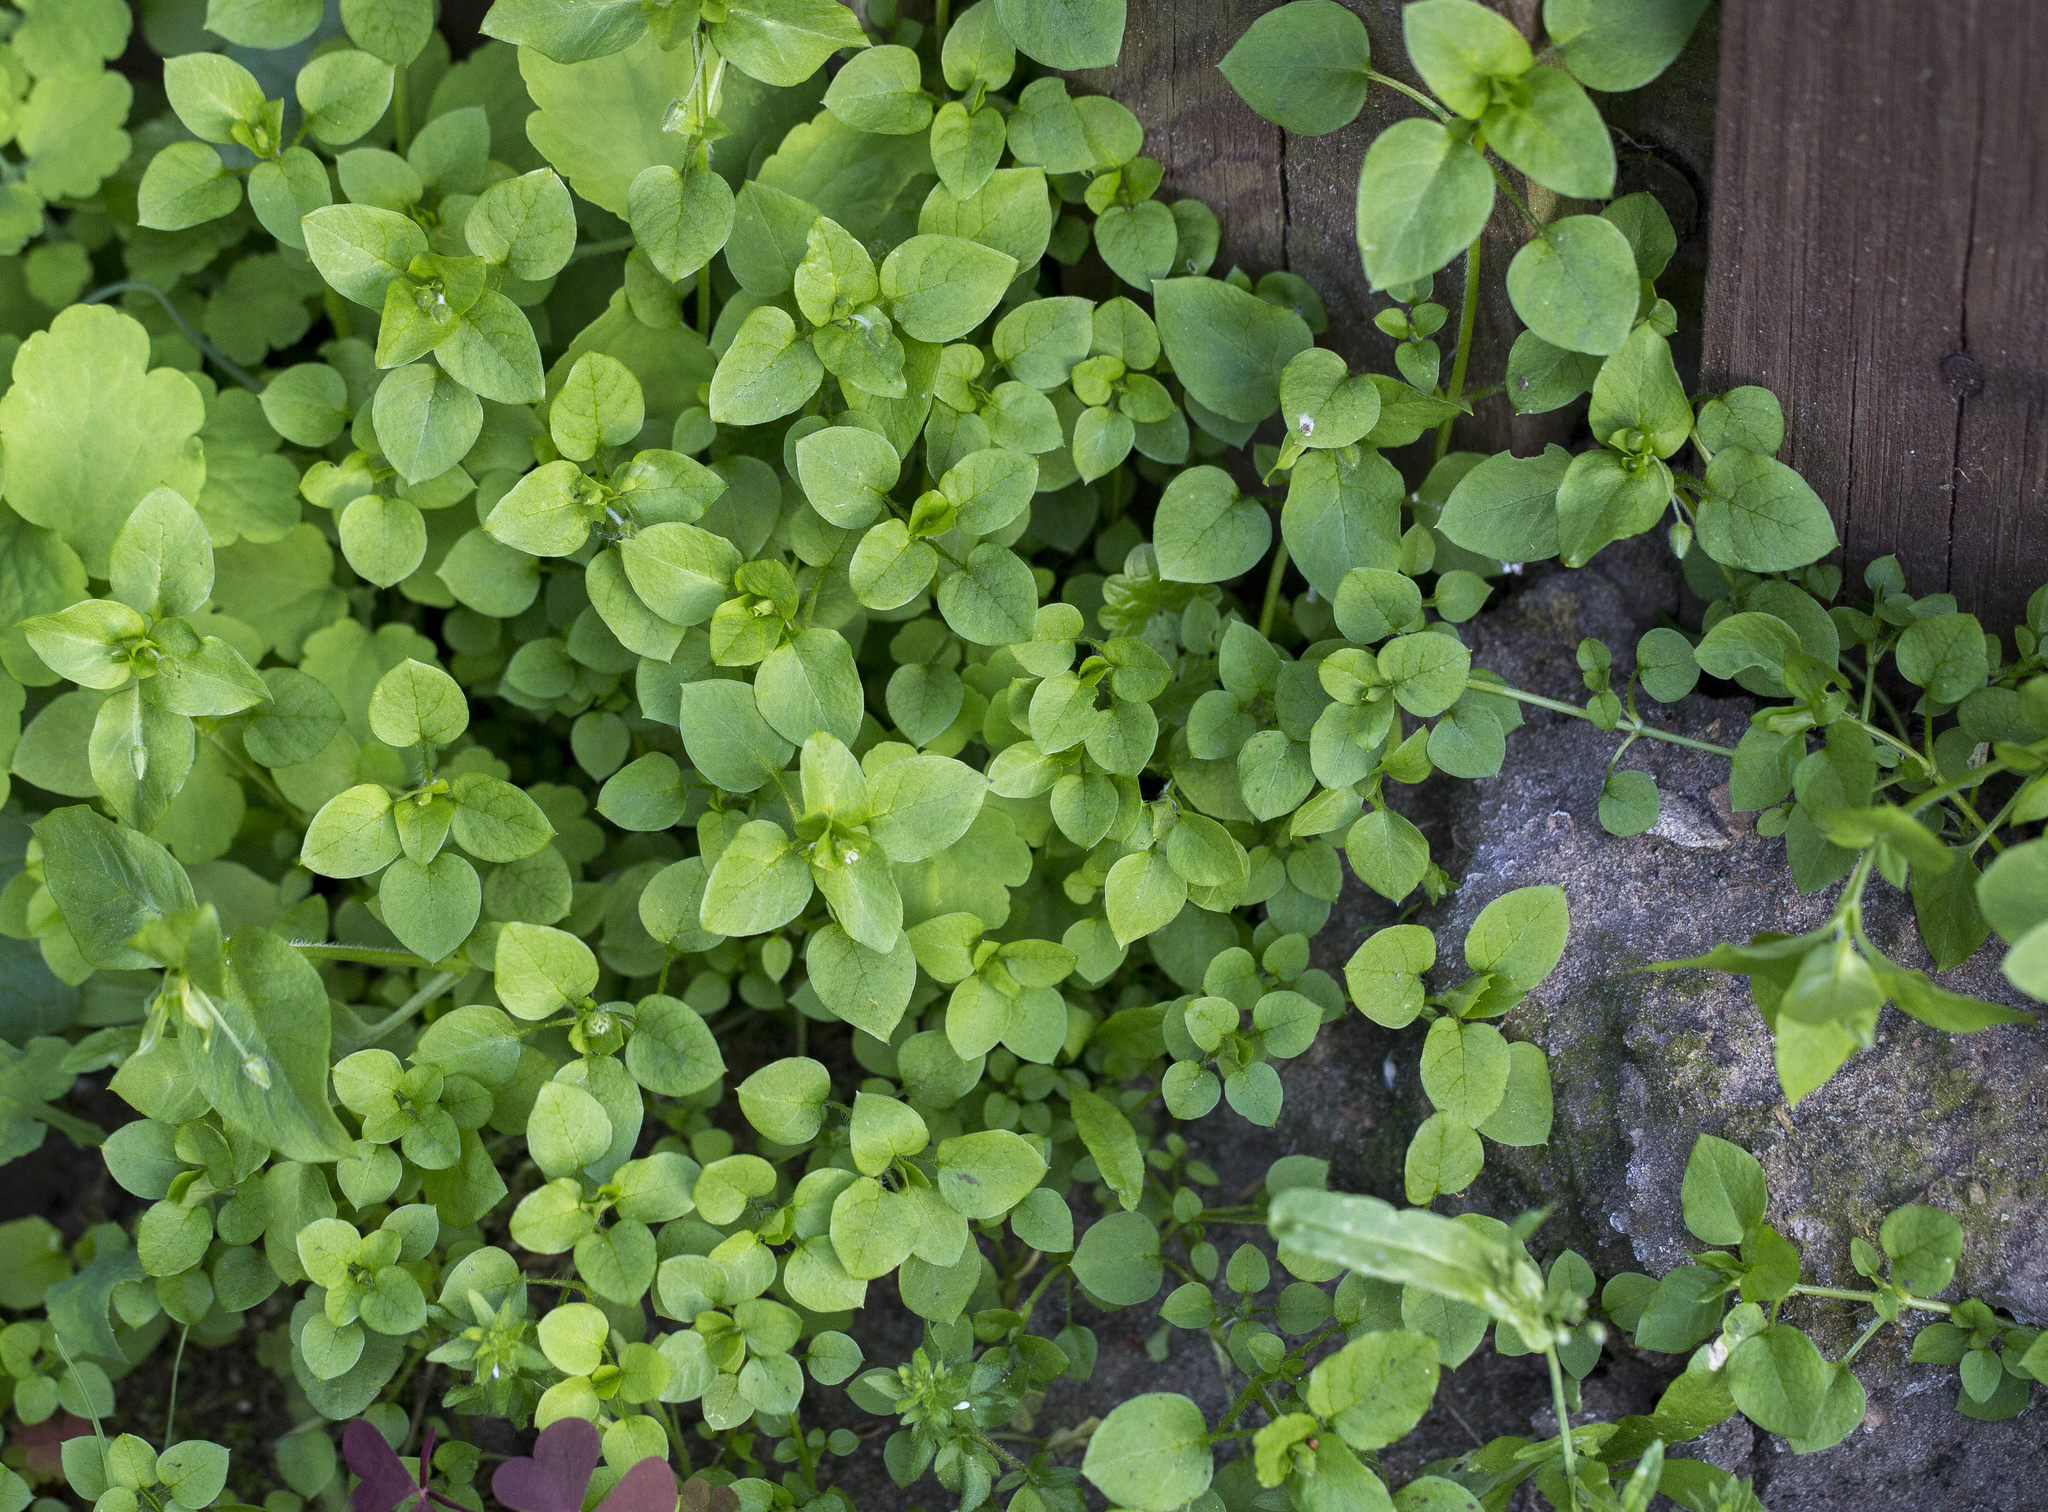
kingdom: Plantae
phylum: Tracheophyta
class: Magnoliopsida
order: Caryophyllales
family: Caryophyllaceae
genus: Stellaria
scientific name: Stellaria media
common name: Common chickweed
